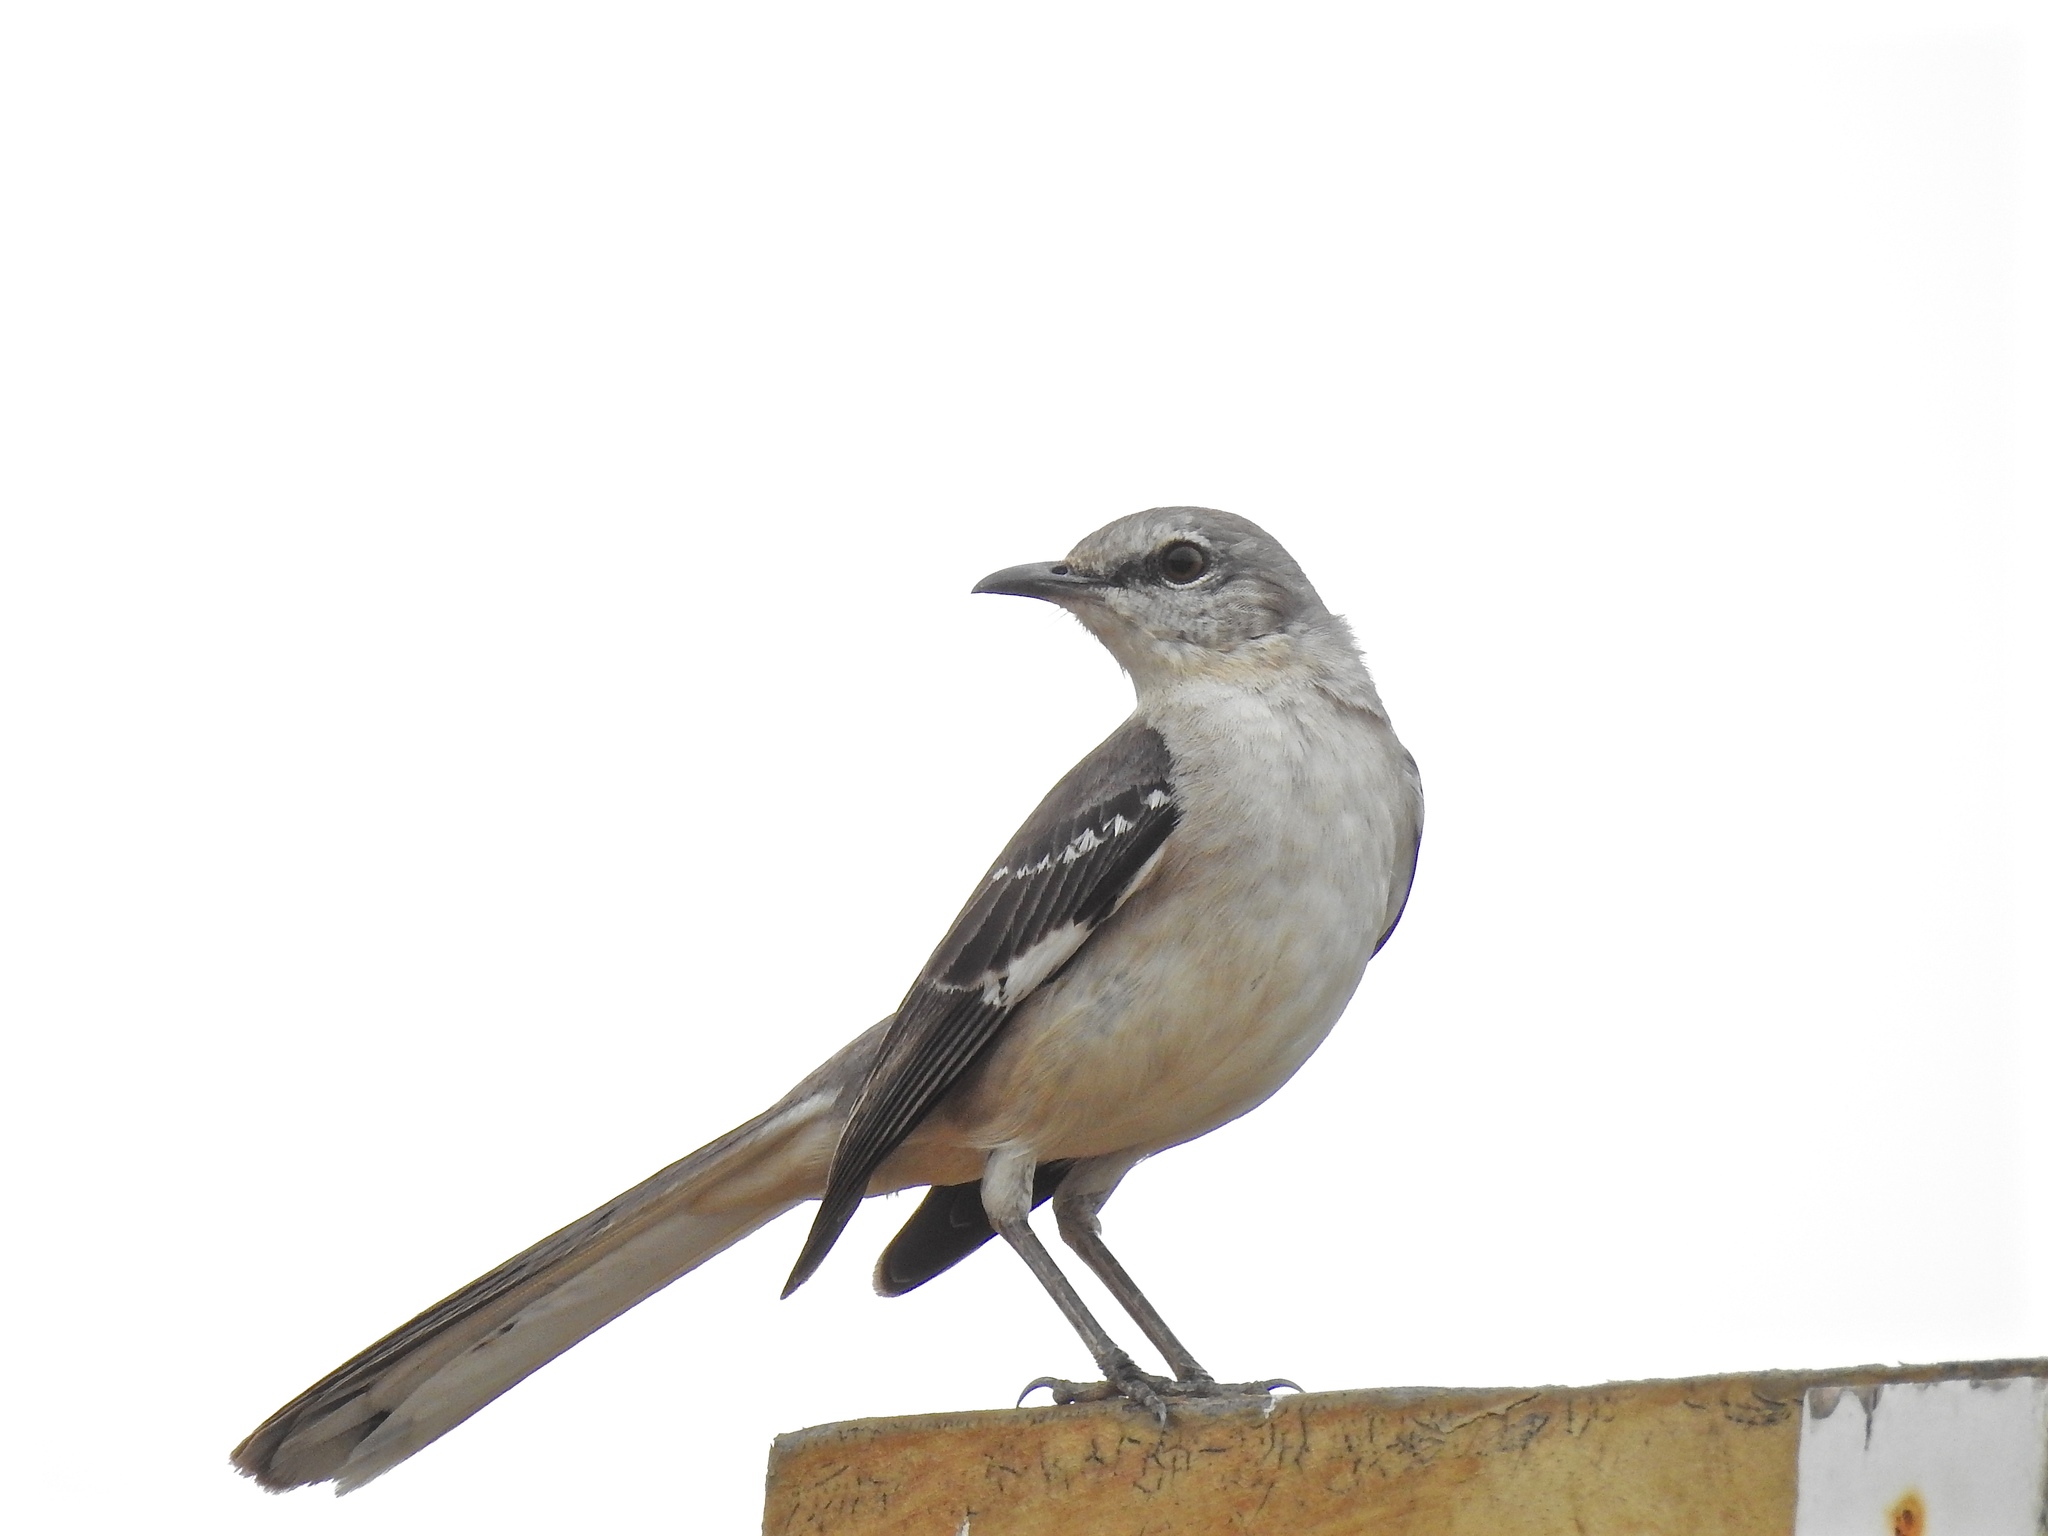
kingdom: Animalia
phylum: Chordata
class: Aves
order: Passeriformes
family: Mimidae
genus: Mimus
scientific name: Mimus polyglottos
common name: Northern mockingbird
